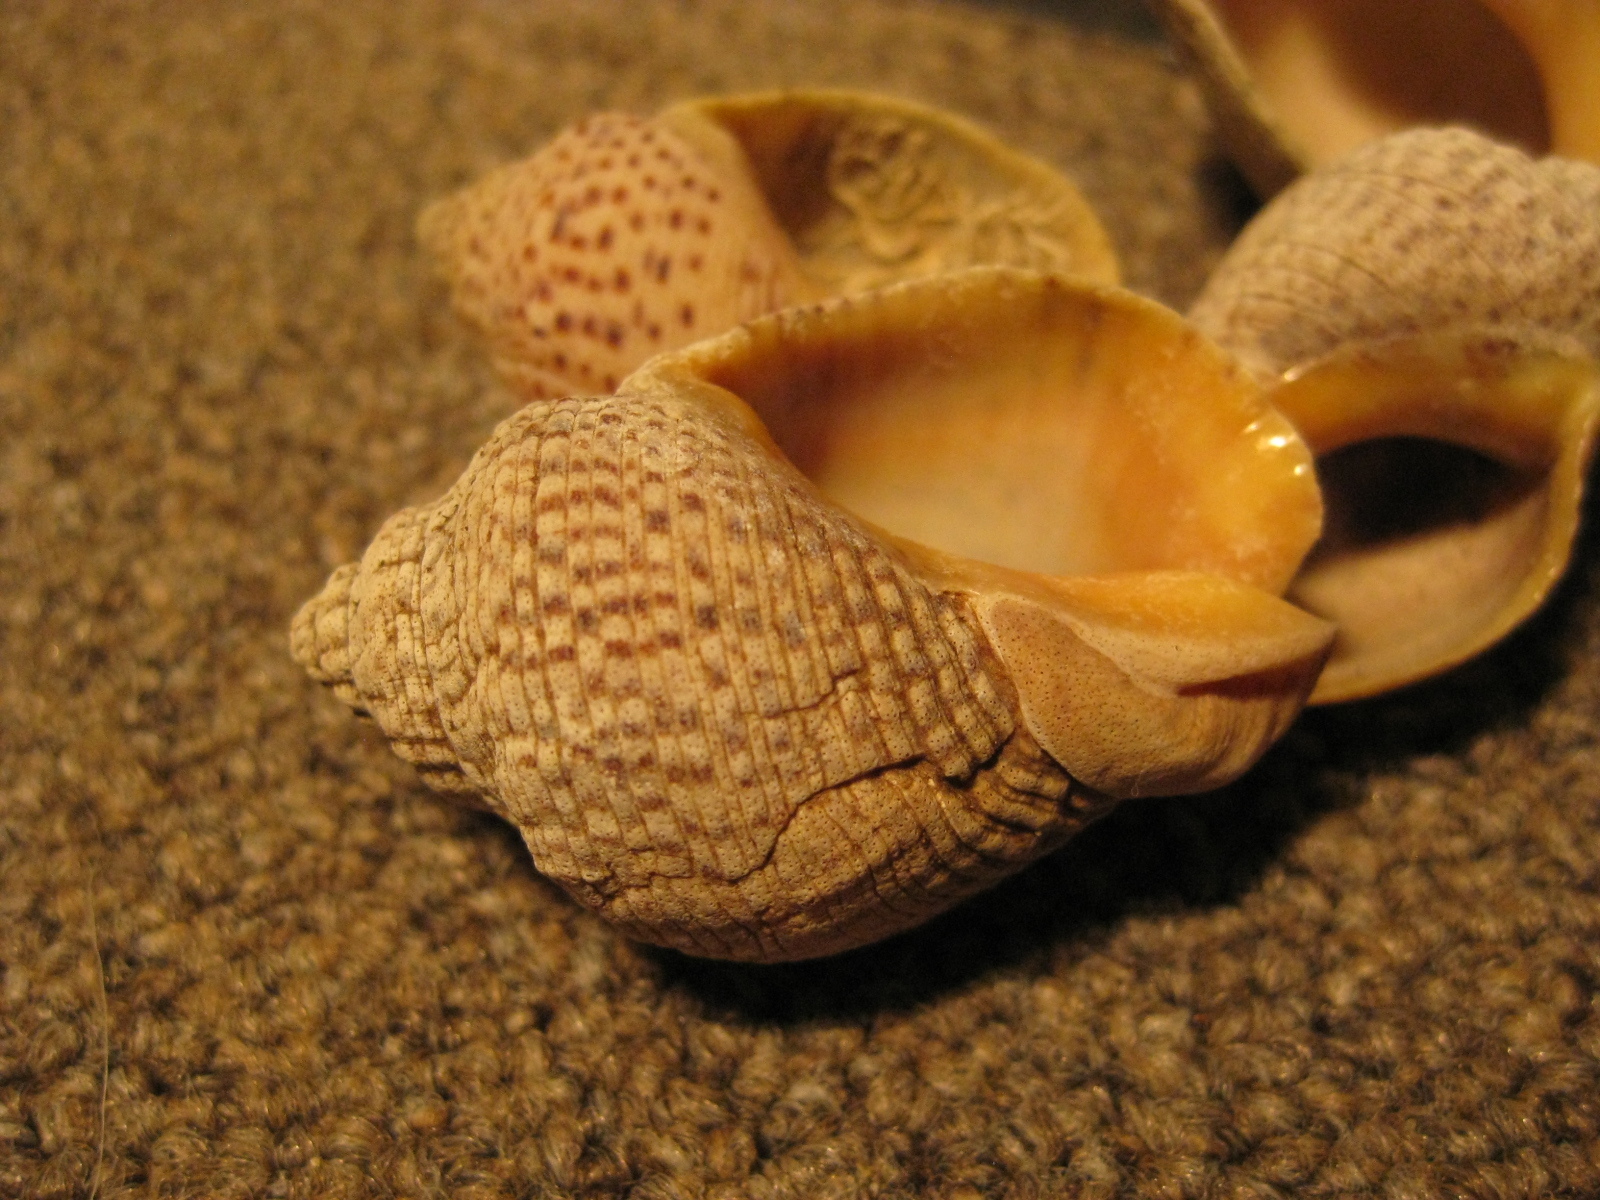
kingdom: Animalia
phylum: Mollusca
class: Gastropoda
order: Neogastropoda
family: Cominellidae
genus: Cominella
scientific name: Cominella adspersa
